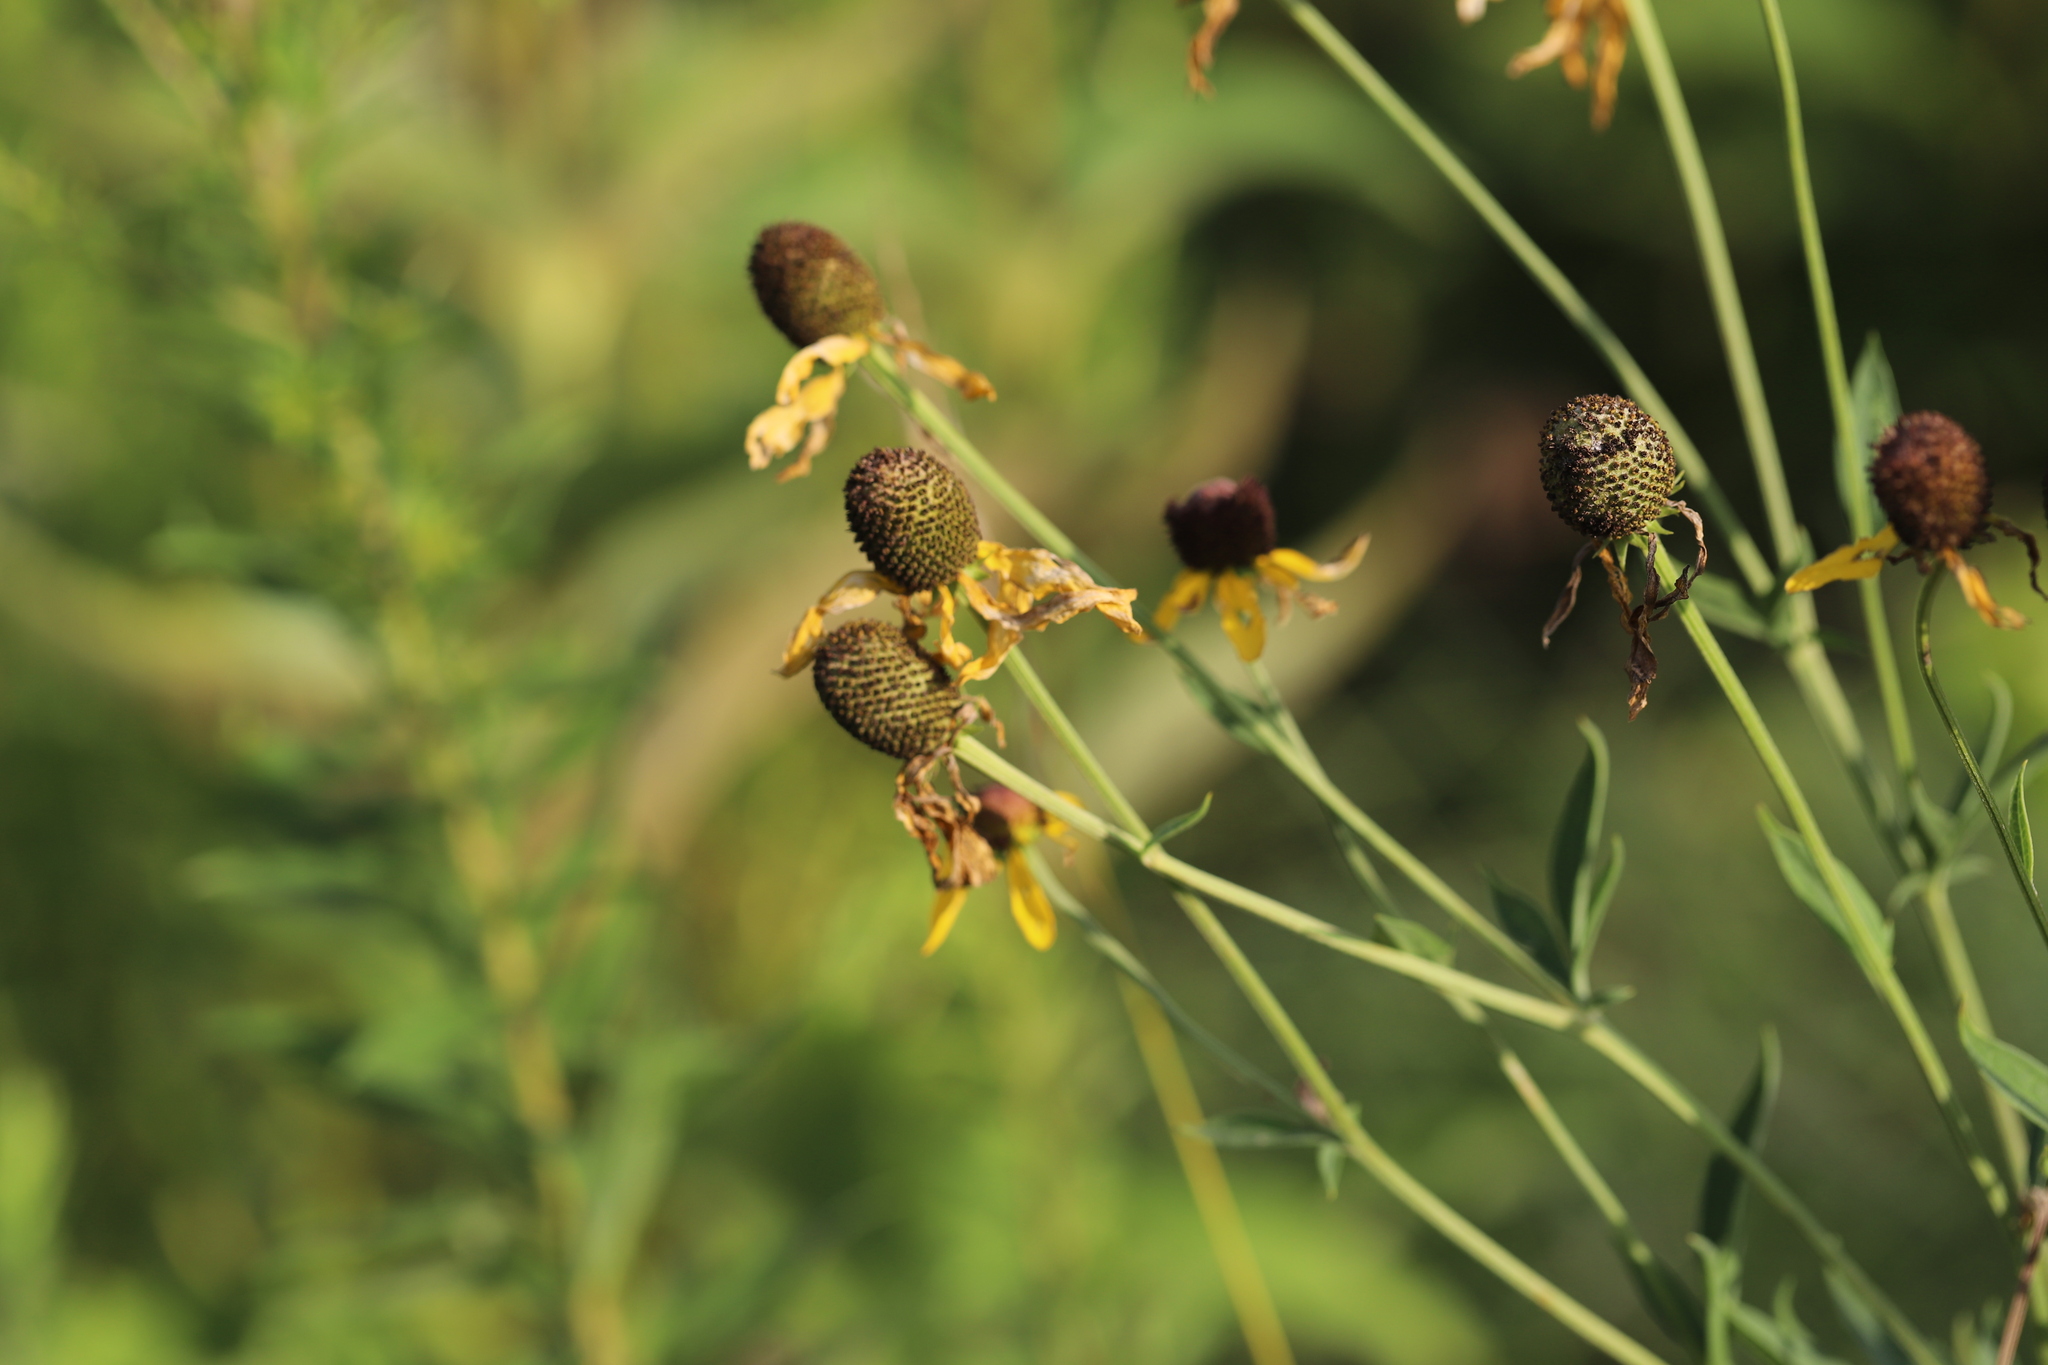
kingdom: Plantae
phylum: Tracheophyta
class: Magnoliopsida
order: Asterales
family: Asteraceae
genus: Ratibida
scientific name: Ratibida pinnata
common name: Drooping prairie-coneflower
